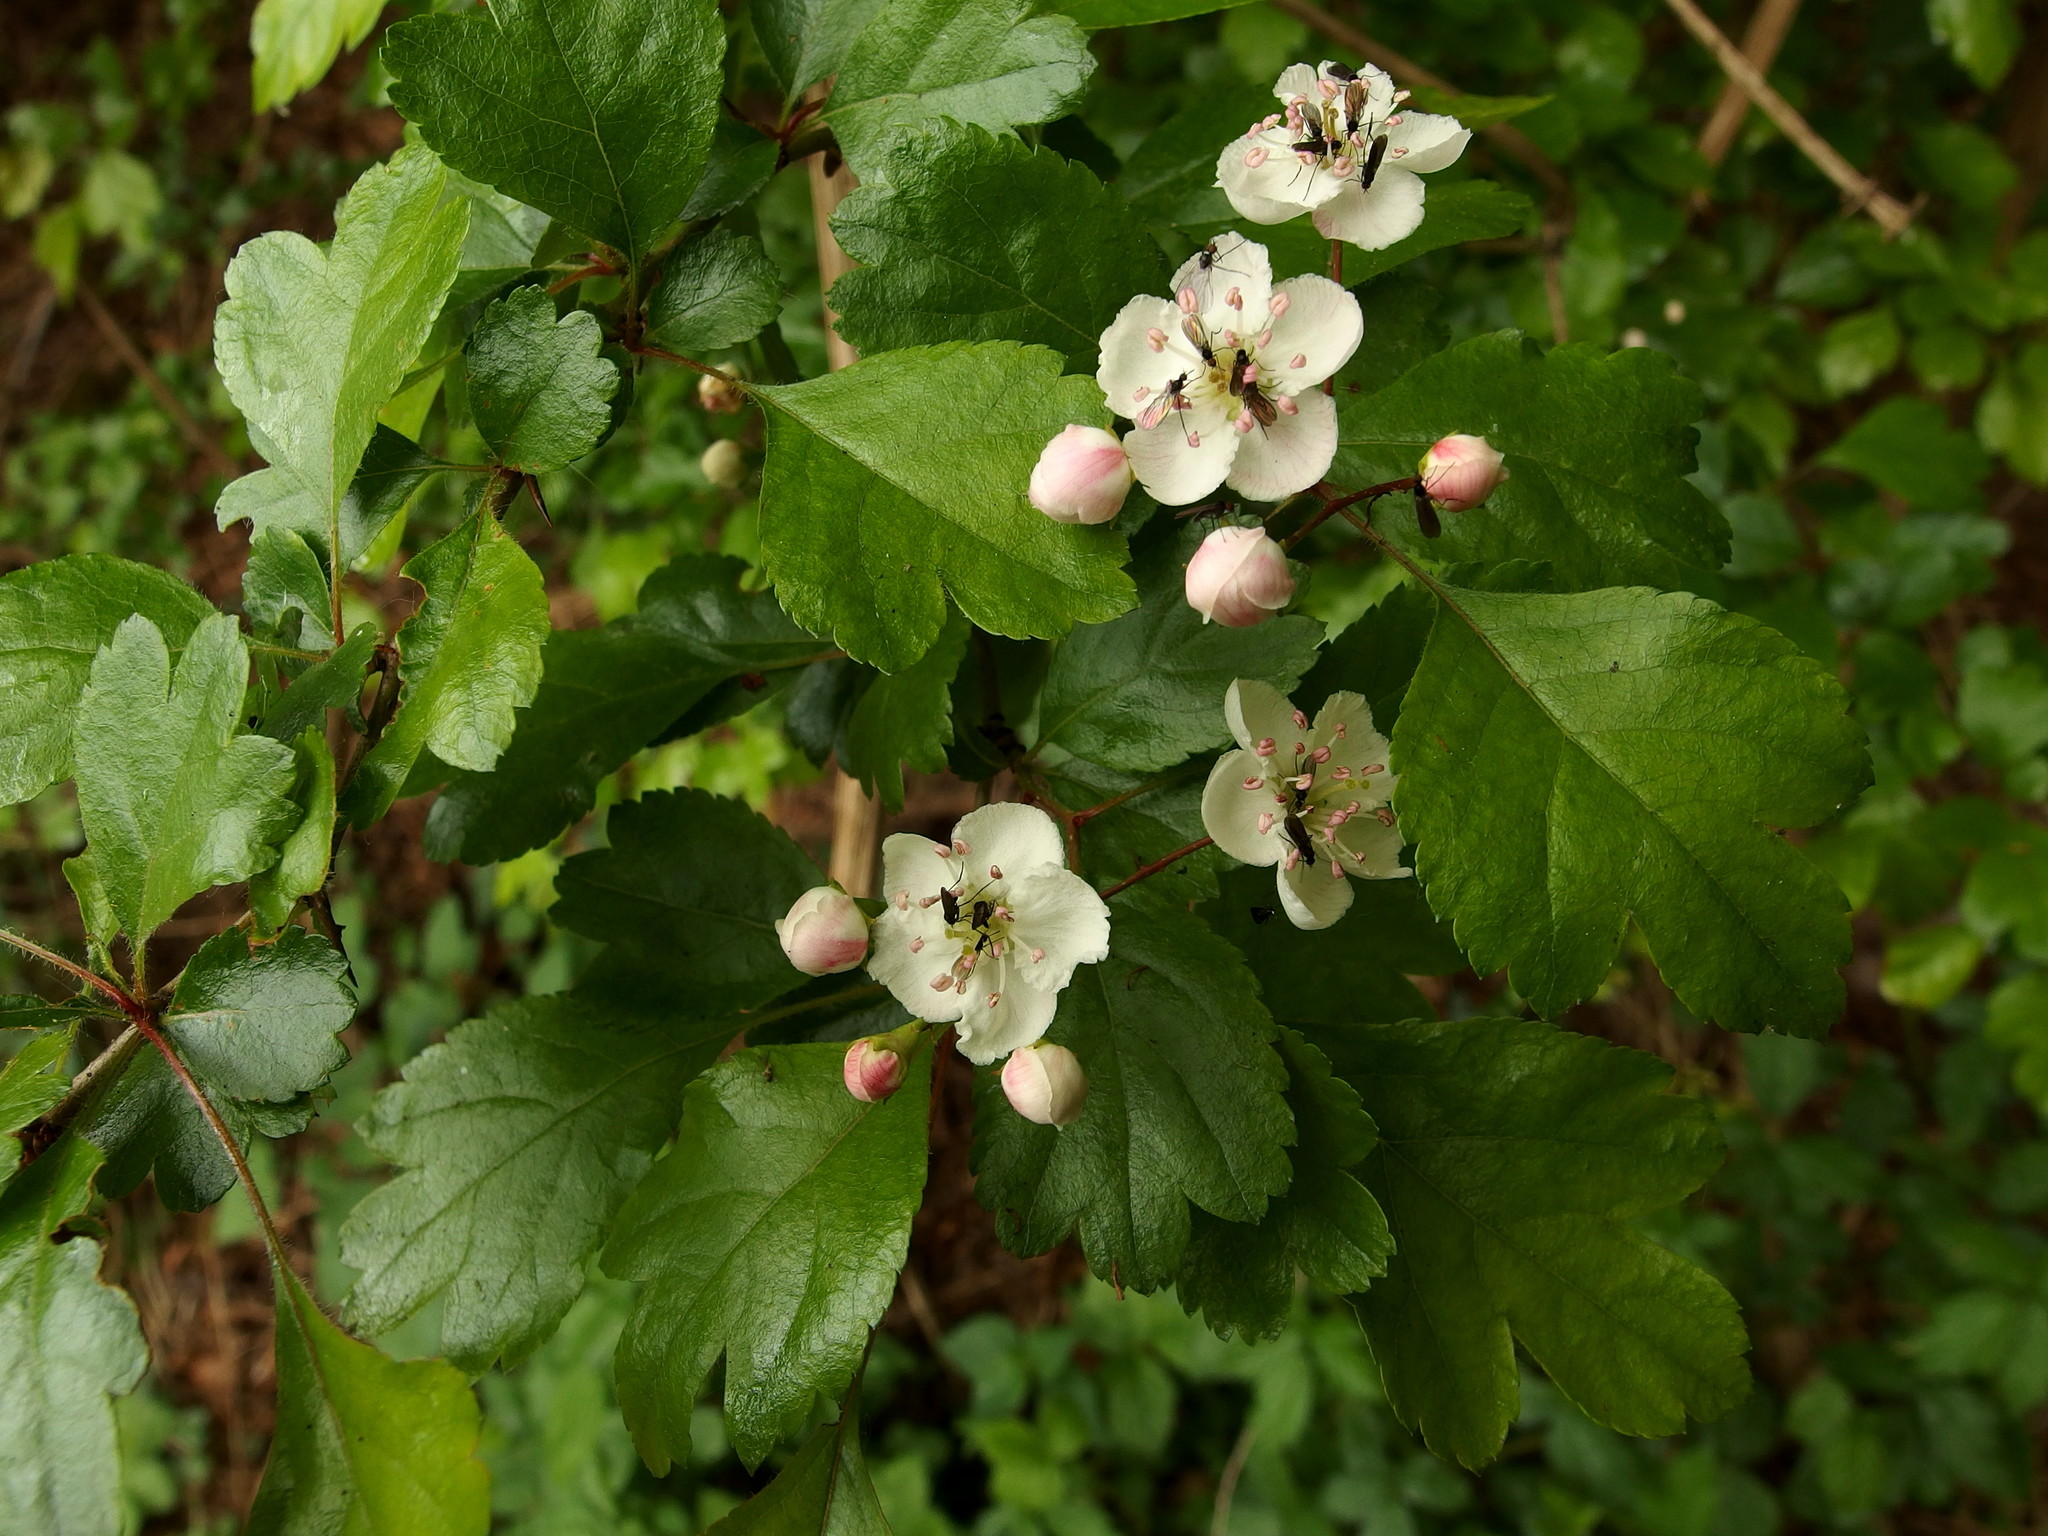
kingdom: Plantae
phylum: Tracheophyta
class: Magnoliopsida
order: Rosales
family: Rosaceae
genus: Crataegus
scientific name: Crataegus laevigata
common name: Midland hawthorn
